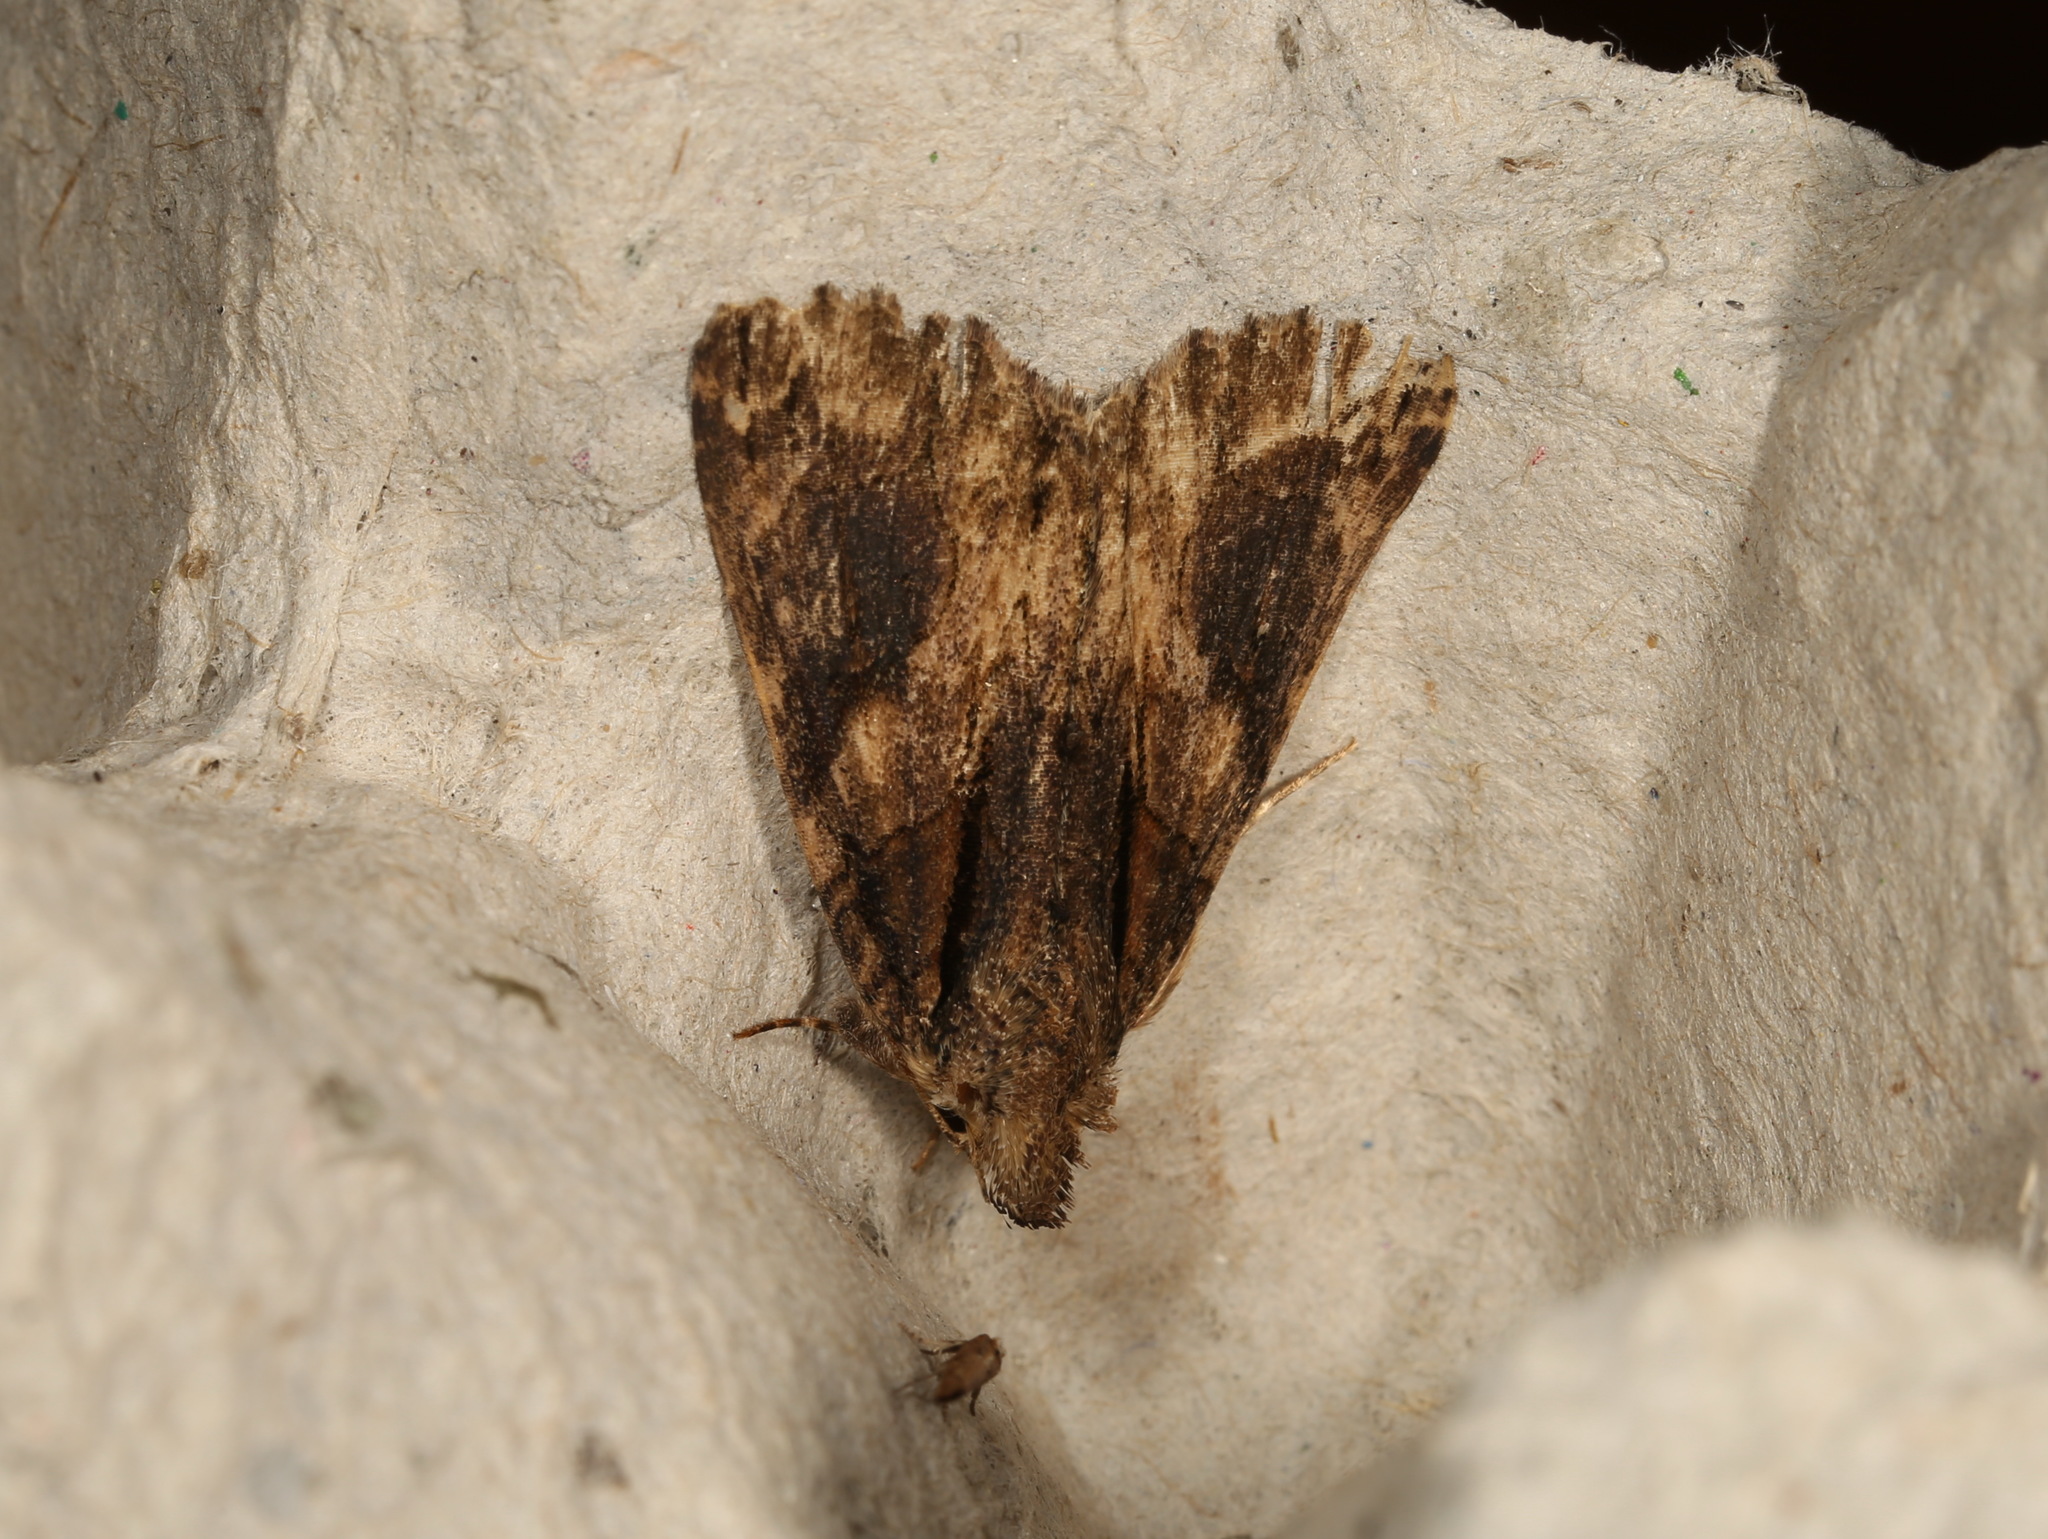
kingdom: Animalia
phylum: Arthropoda
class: Insecta
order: Lepidoptera
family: Erebidae
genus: Crioa
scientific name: Crioa hades
